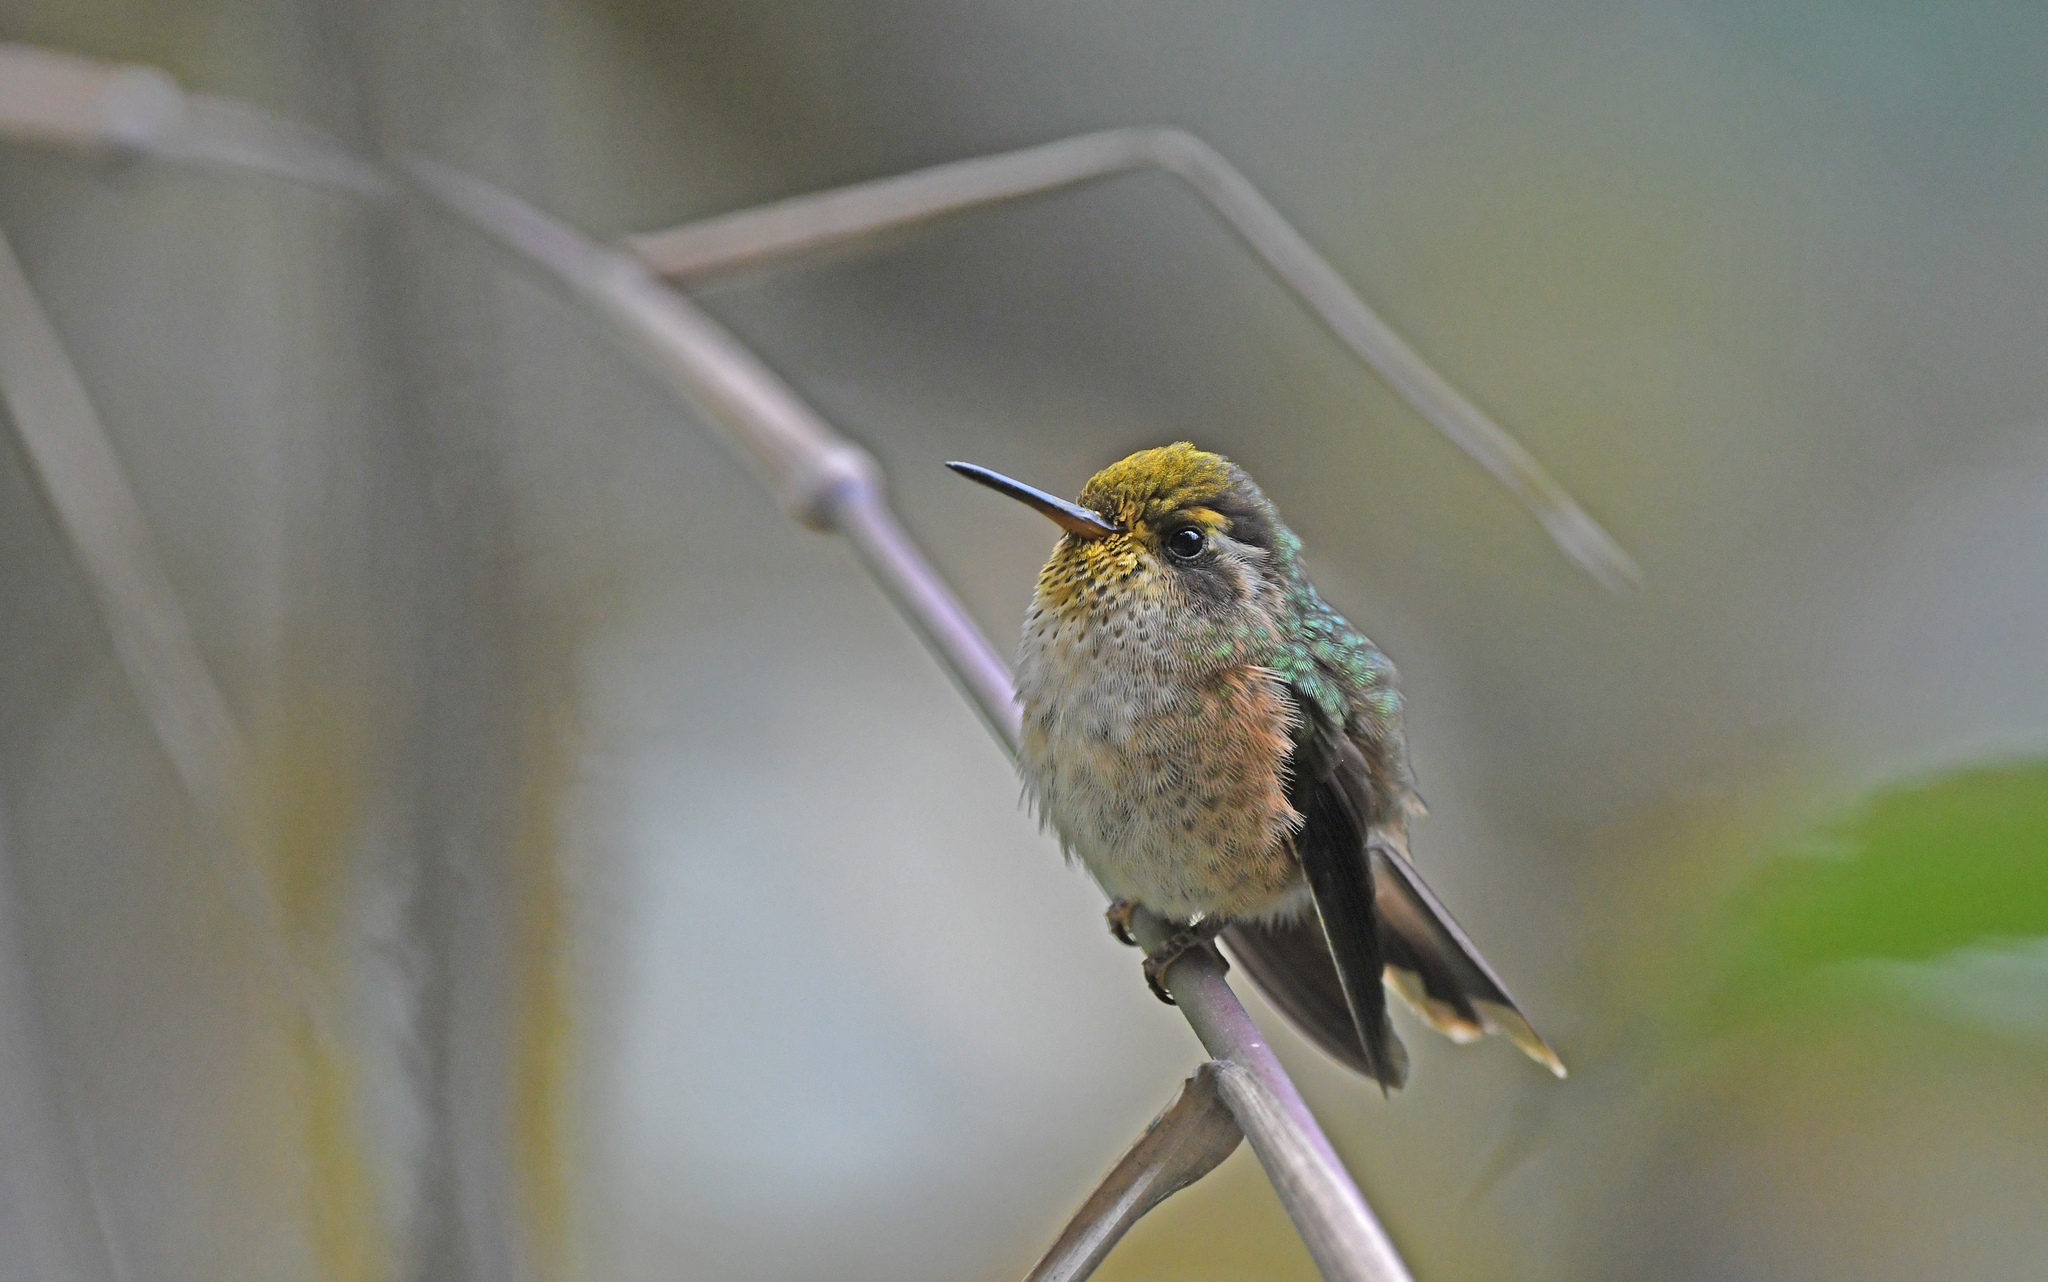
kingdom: Animalia
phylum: Chordata
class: Aves
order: Apodiformes
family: Trochilidae
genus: Adelomyia
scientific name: Adelomyia melanogenys
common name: Speckled hummingbird
